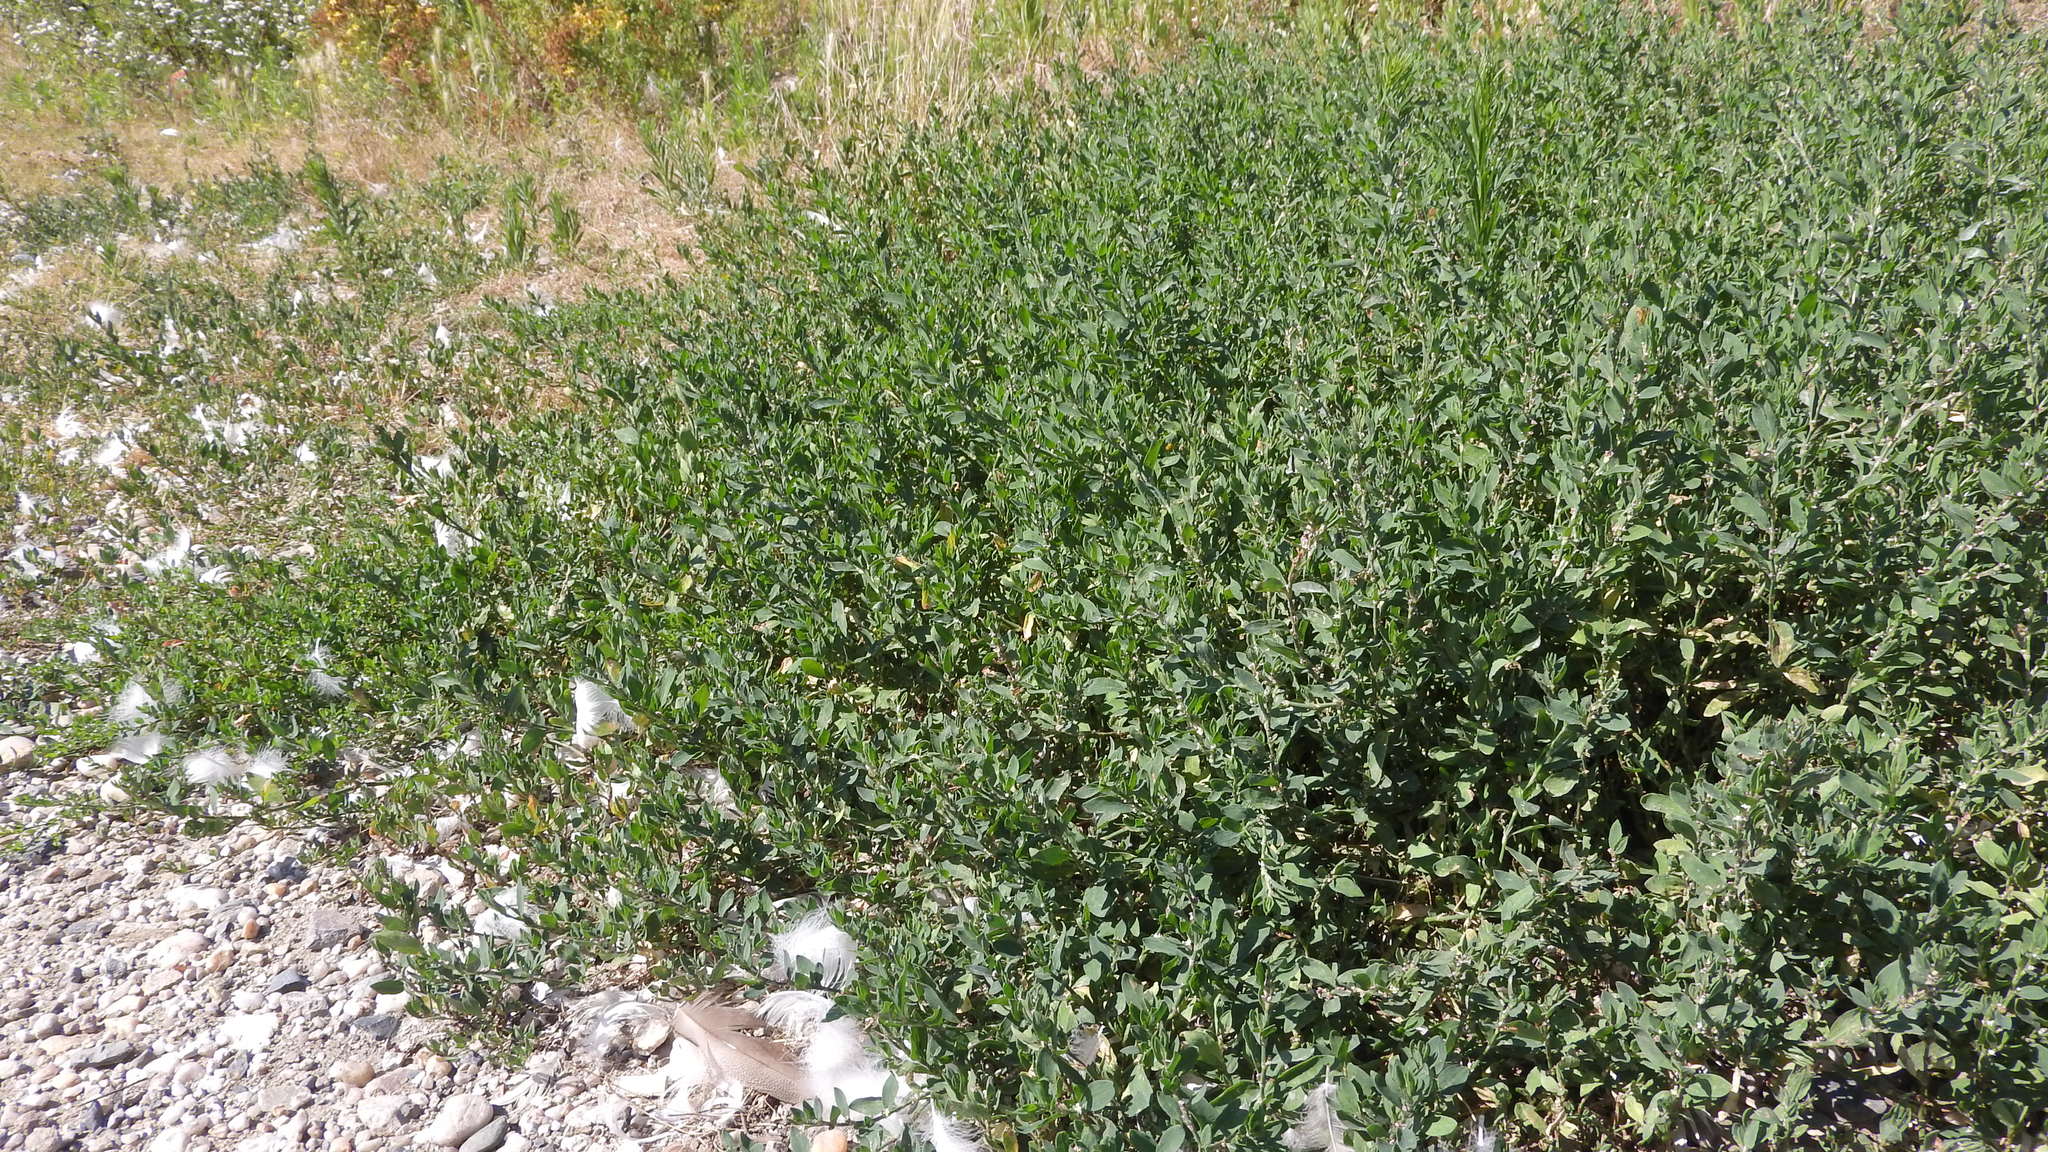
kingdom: Plantae
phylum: Tracheophyta
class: Magnoliopsida
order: Caryophyllales
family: Polygonaceae
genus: Polygonum
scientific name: Polygonum
